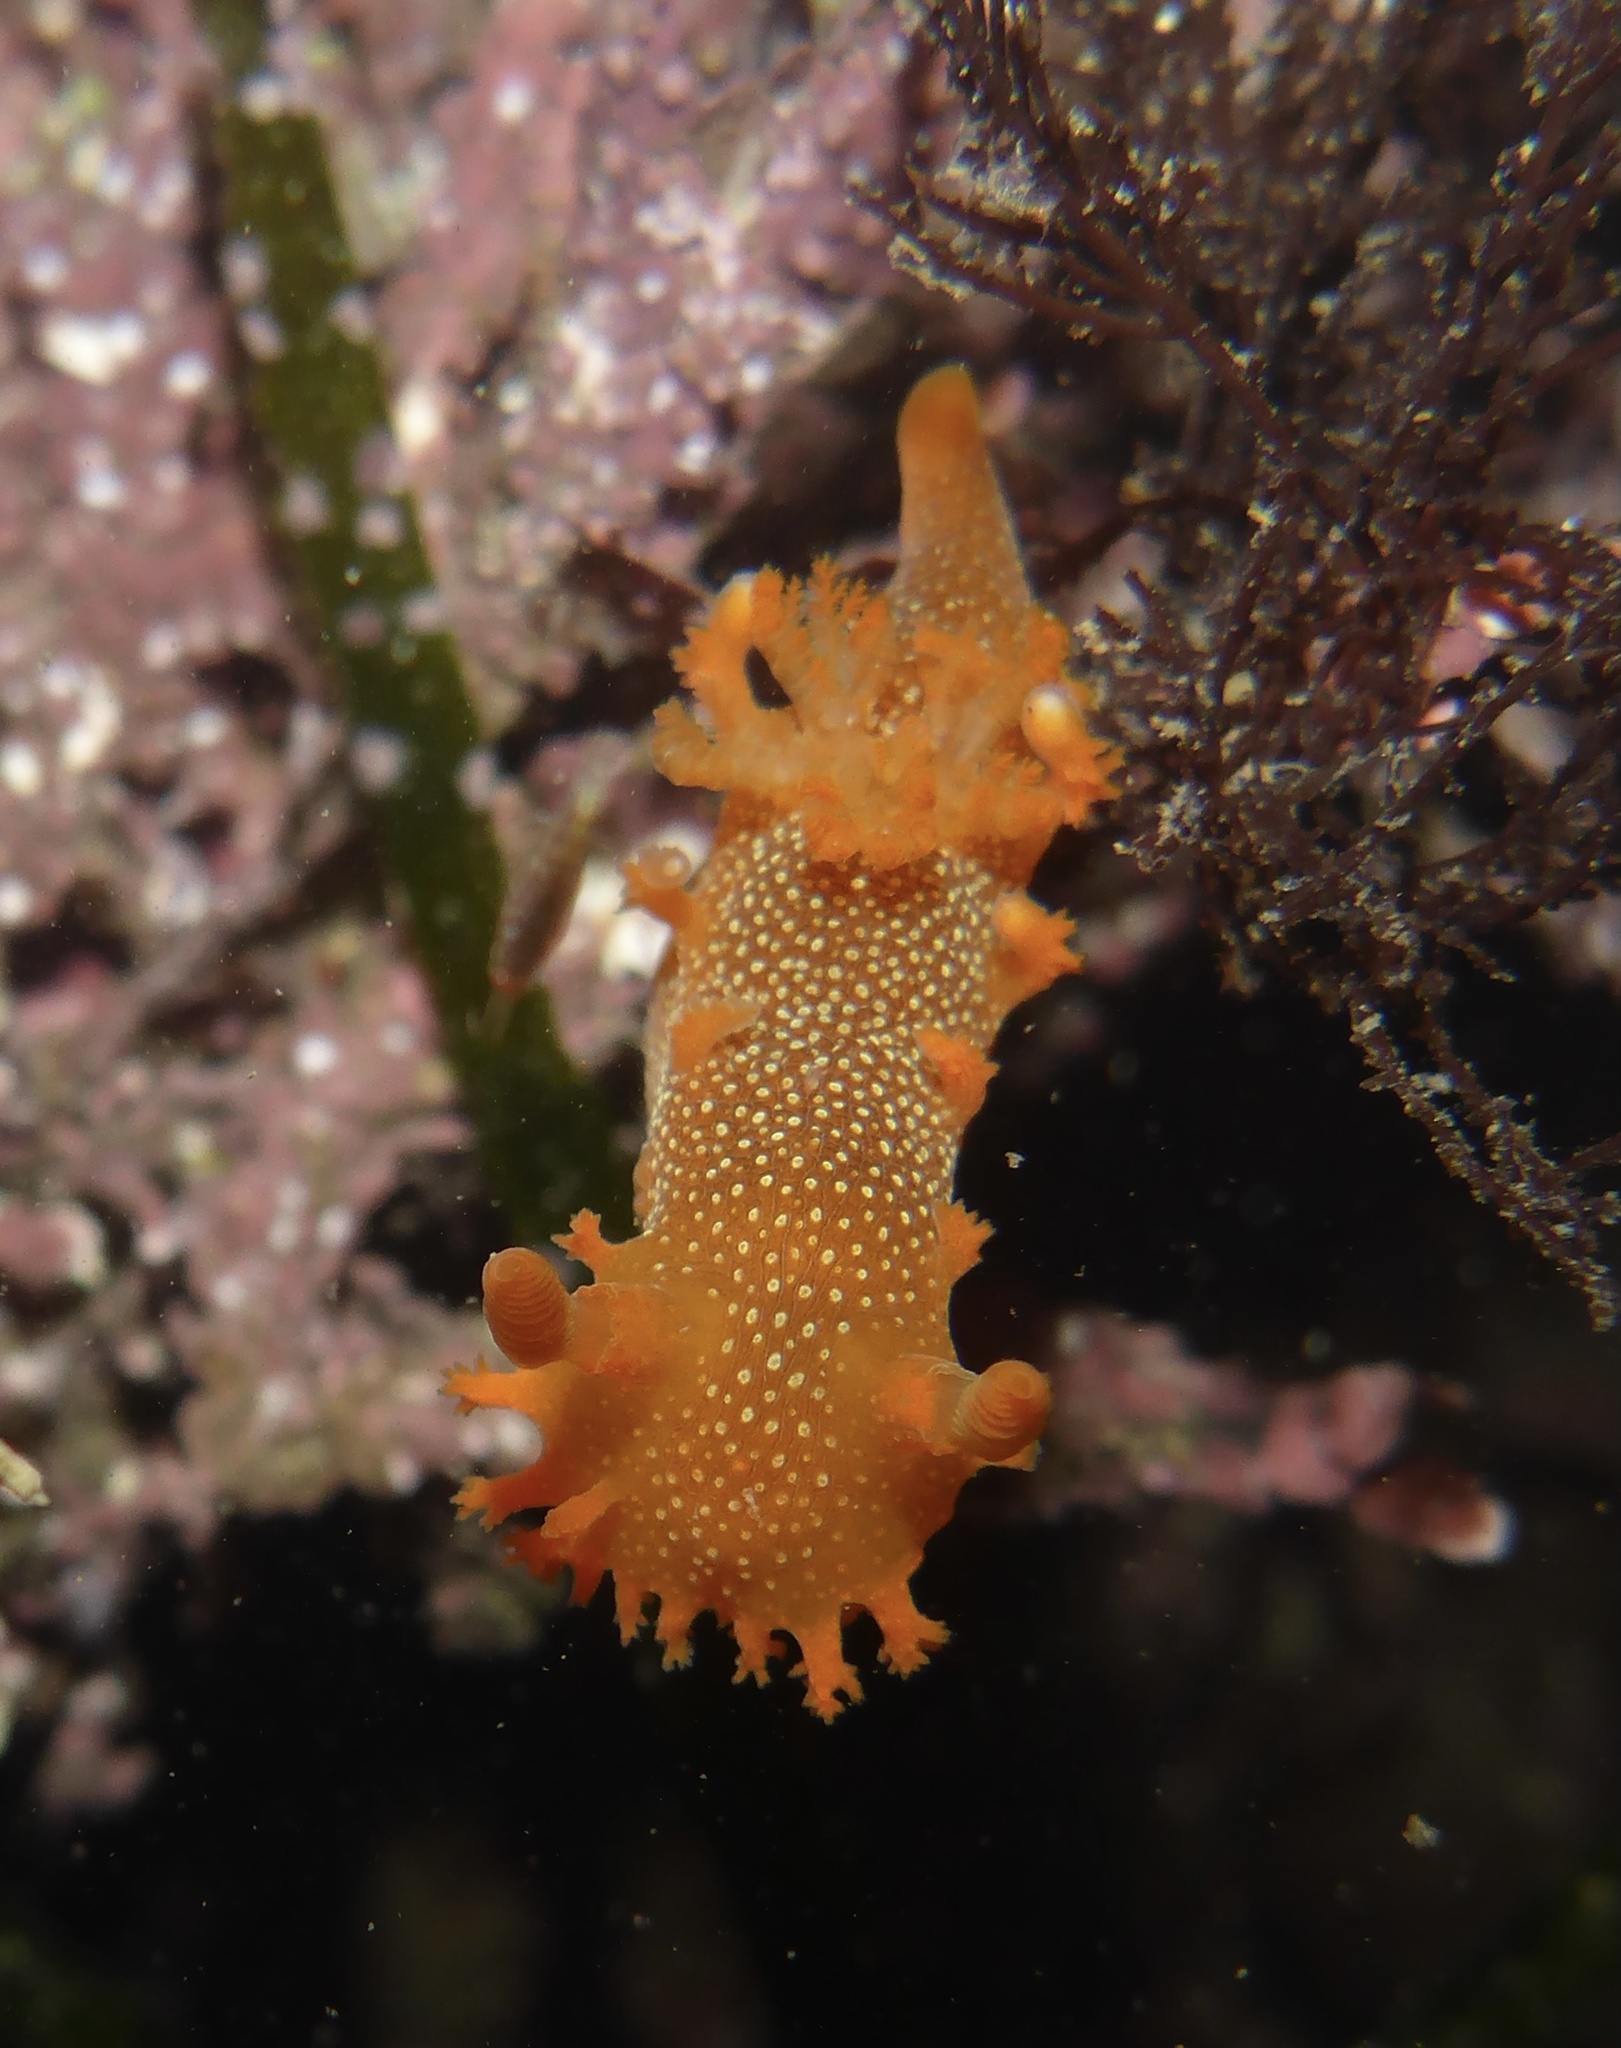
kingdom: Animalia
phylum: Mollusca
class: Gastropoda
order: Nudibranchia
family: Polyceridae
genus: Triopha
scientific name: Triopha maculata
